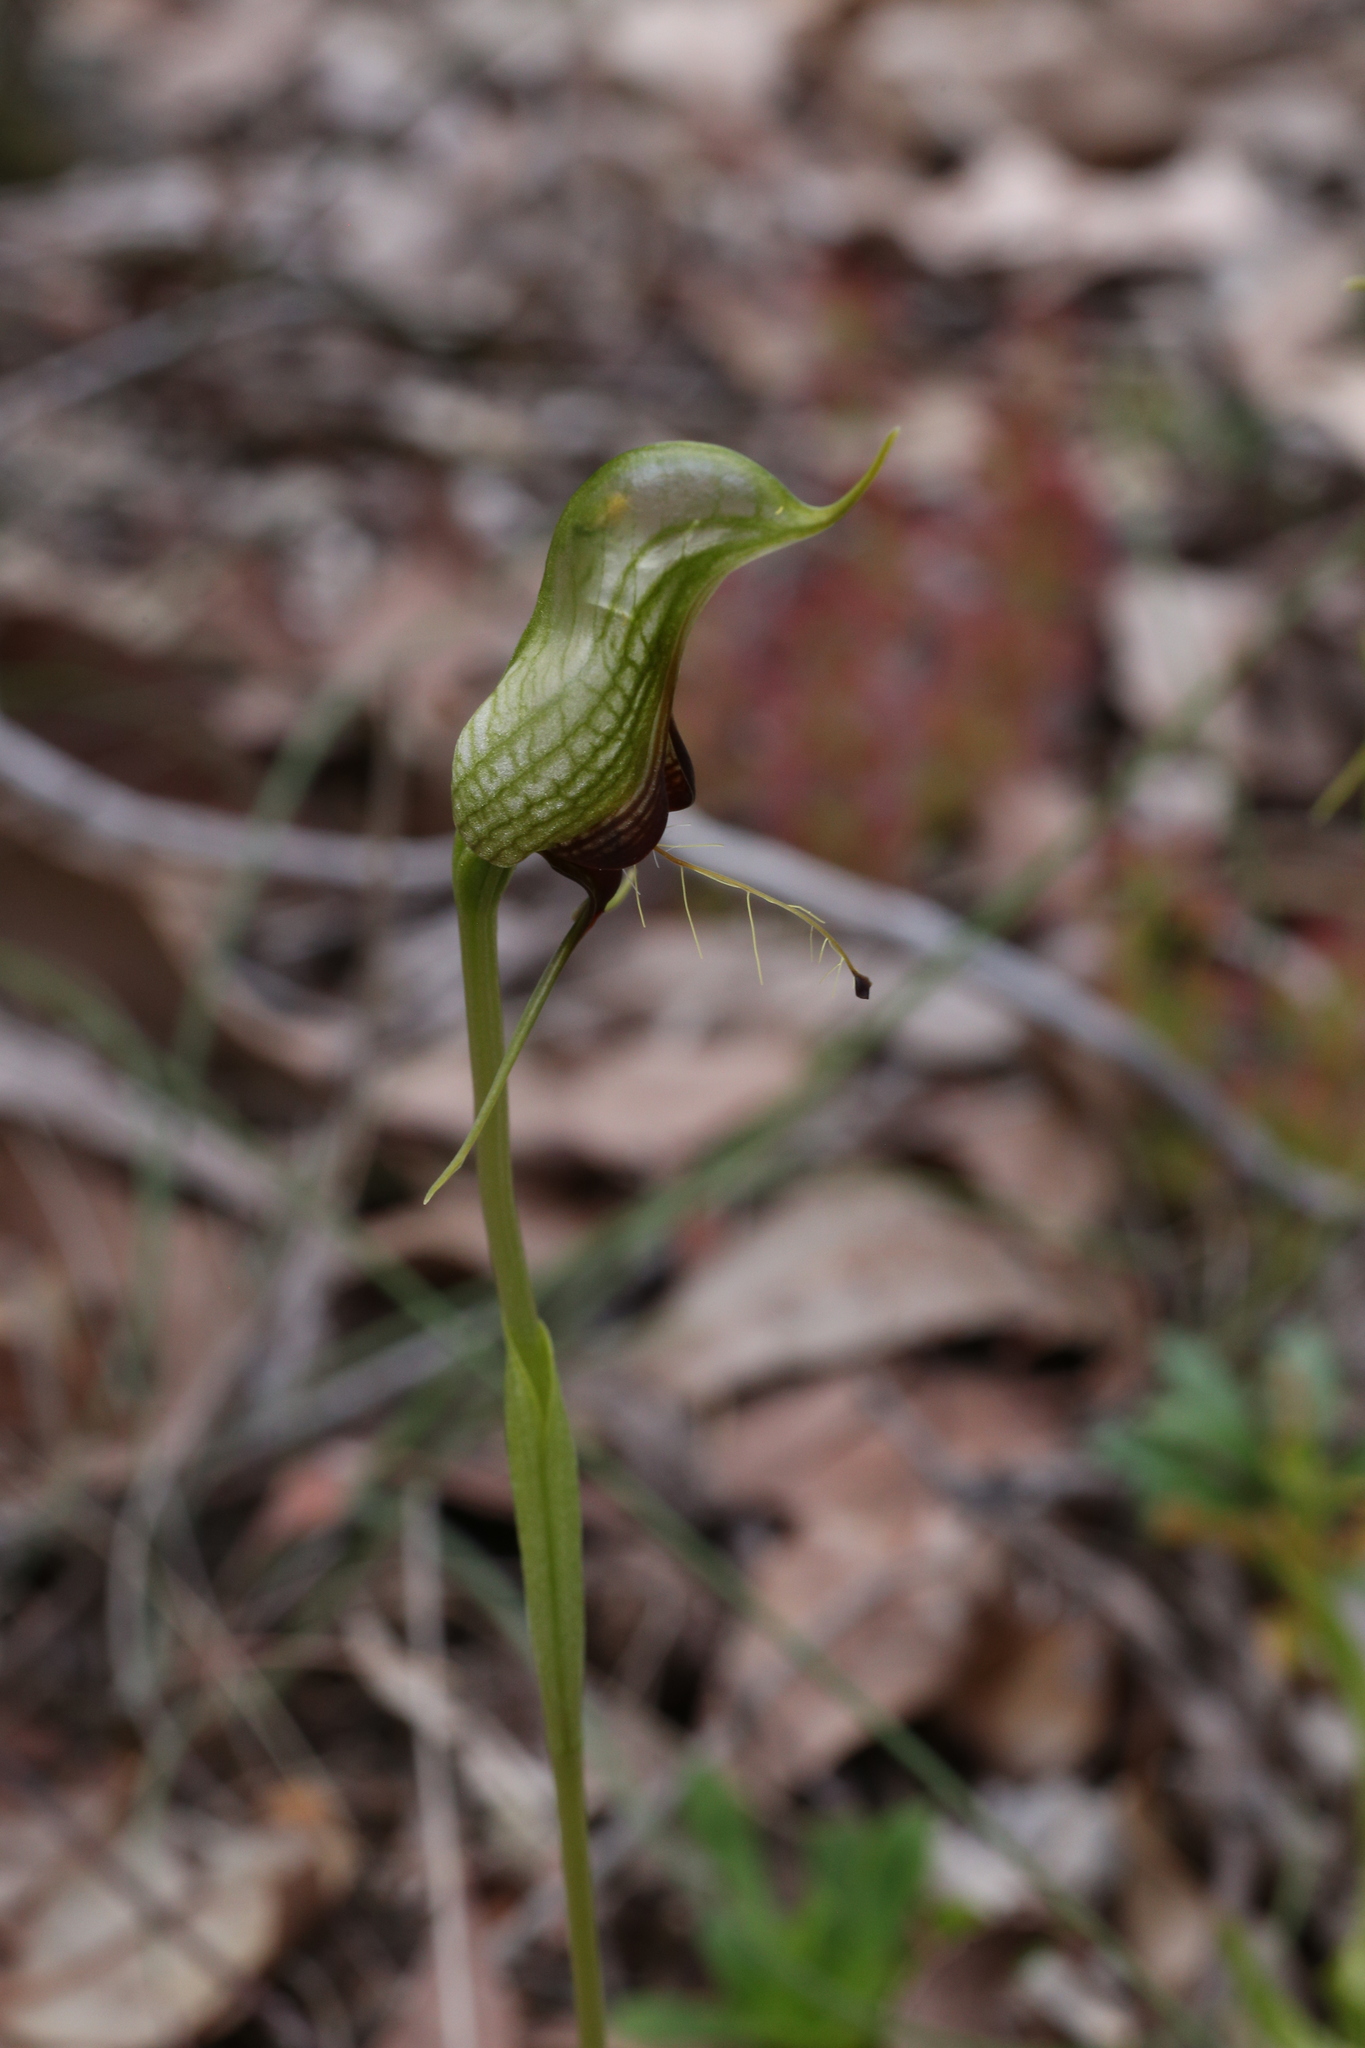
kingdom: Plantae
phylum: Tracheophyta
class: Liliopsida
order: Asparagales
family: Orchidaceae
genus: Pterostylis
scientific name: Pterostylis barbata
